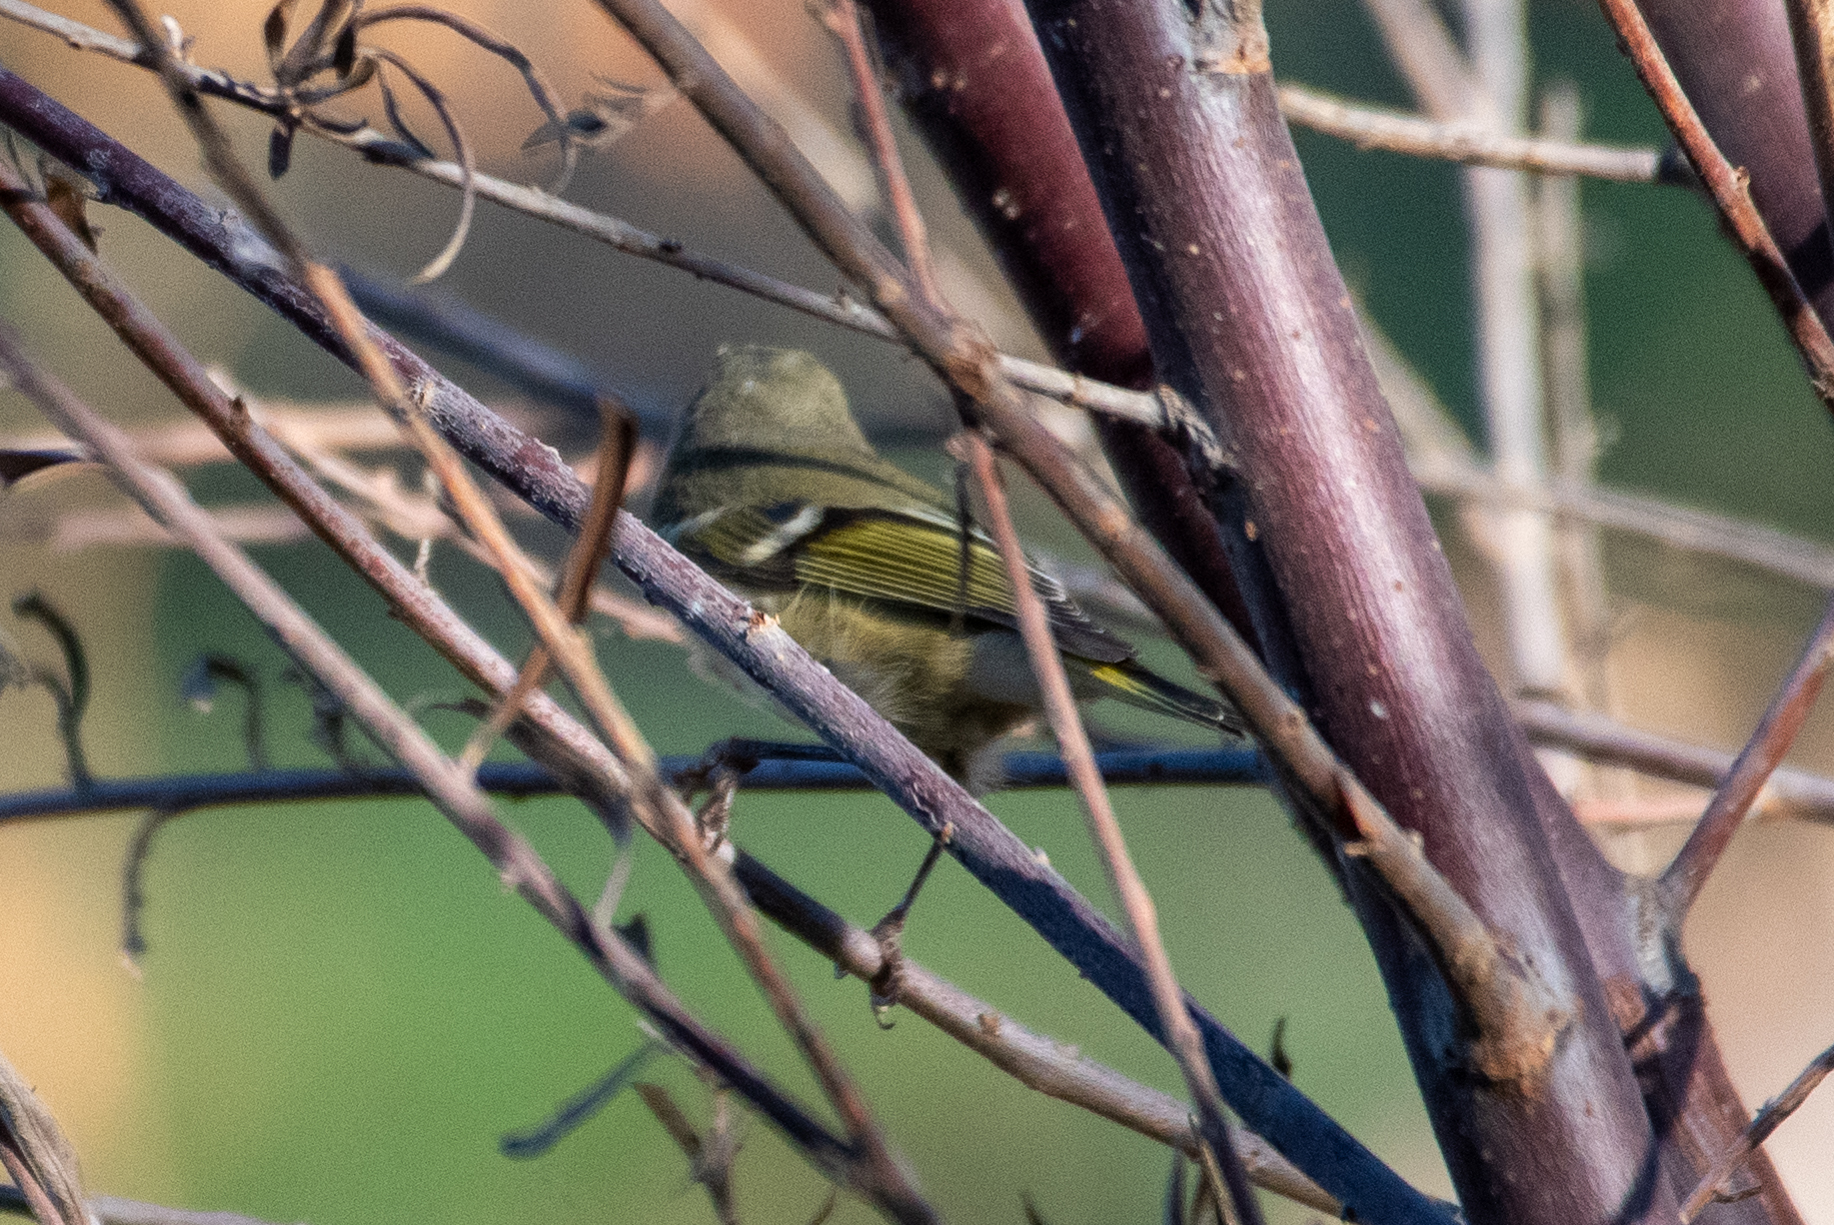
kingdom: Animalia
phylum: Chordata
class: Aves
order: Passeriformes
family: Regulidae
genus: Regulus
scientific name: Regulus calendula
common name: Ruby-crowned kinglet
